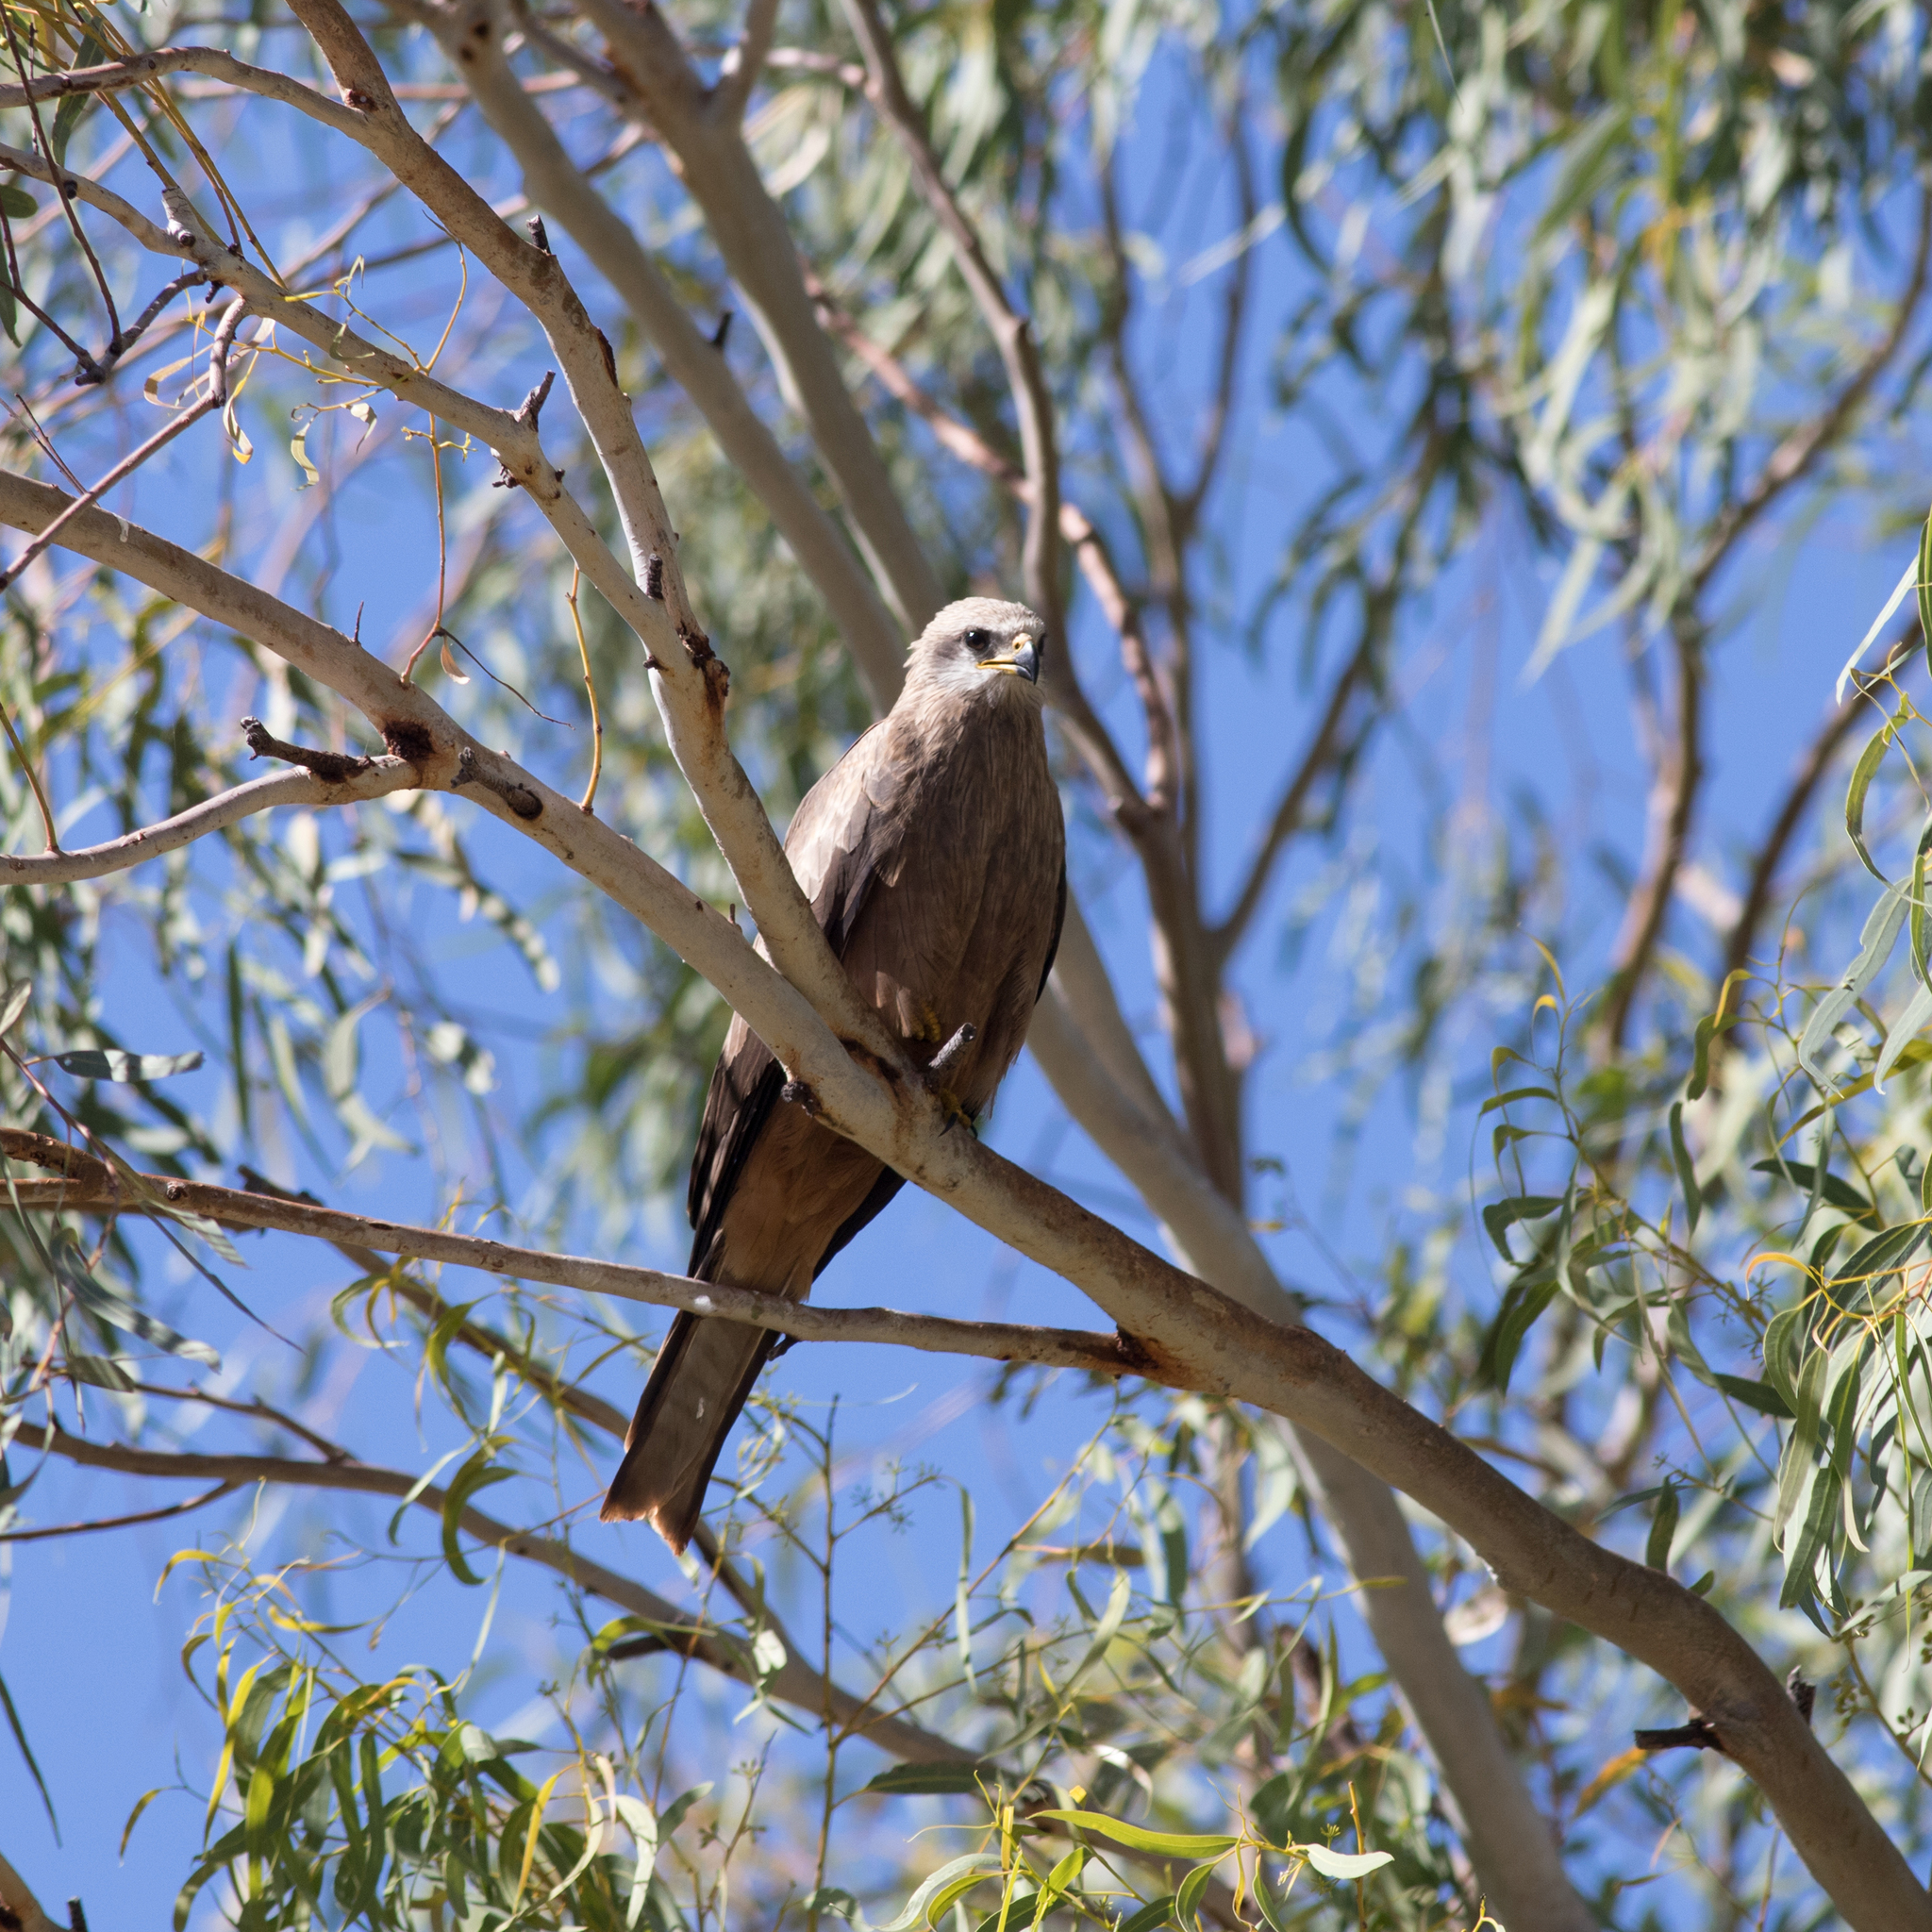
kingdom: Animalia
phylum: Chordata
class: Aves
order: Accipitriformes
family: Accipitridae
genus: Milvus
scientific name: Milvus migrans
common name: Black kite
